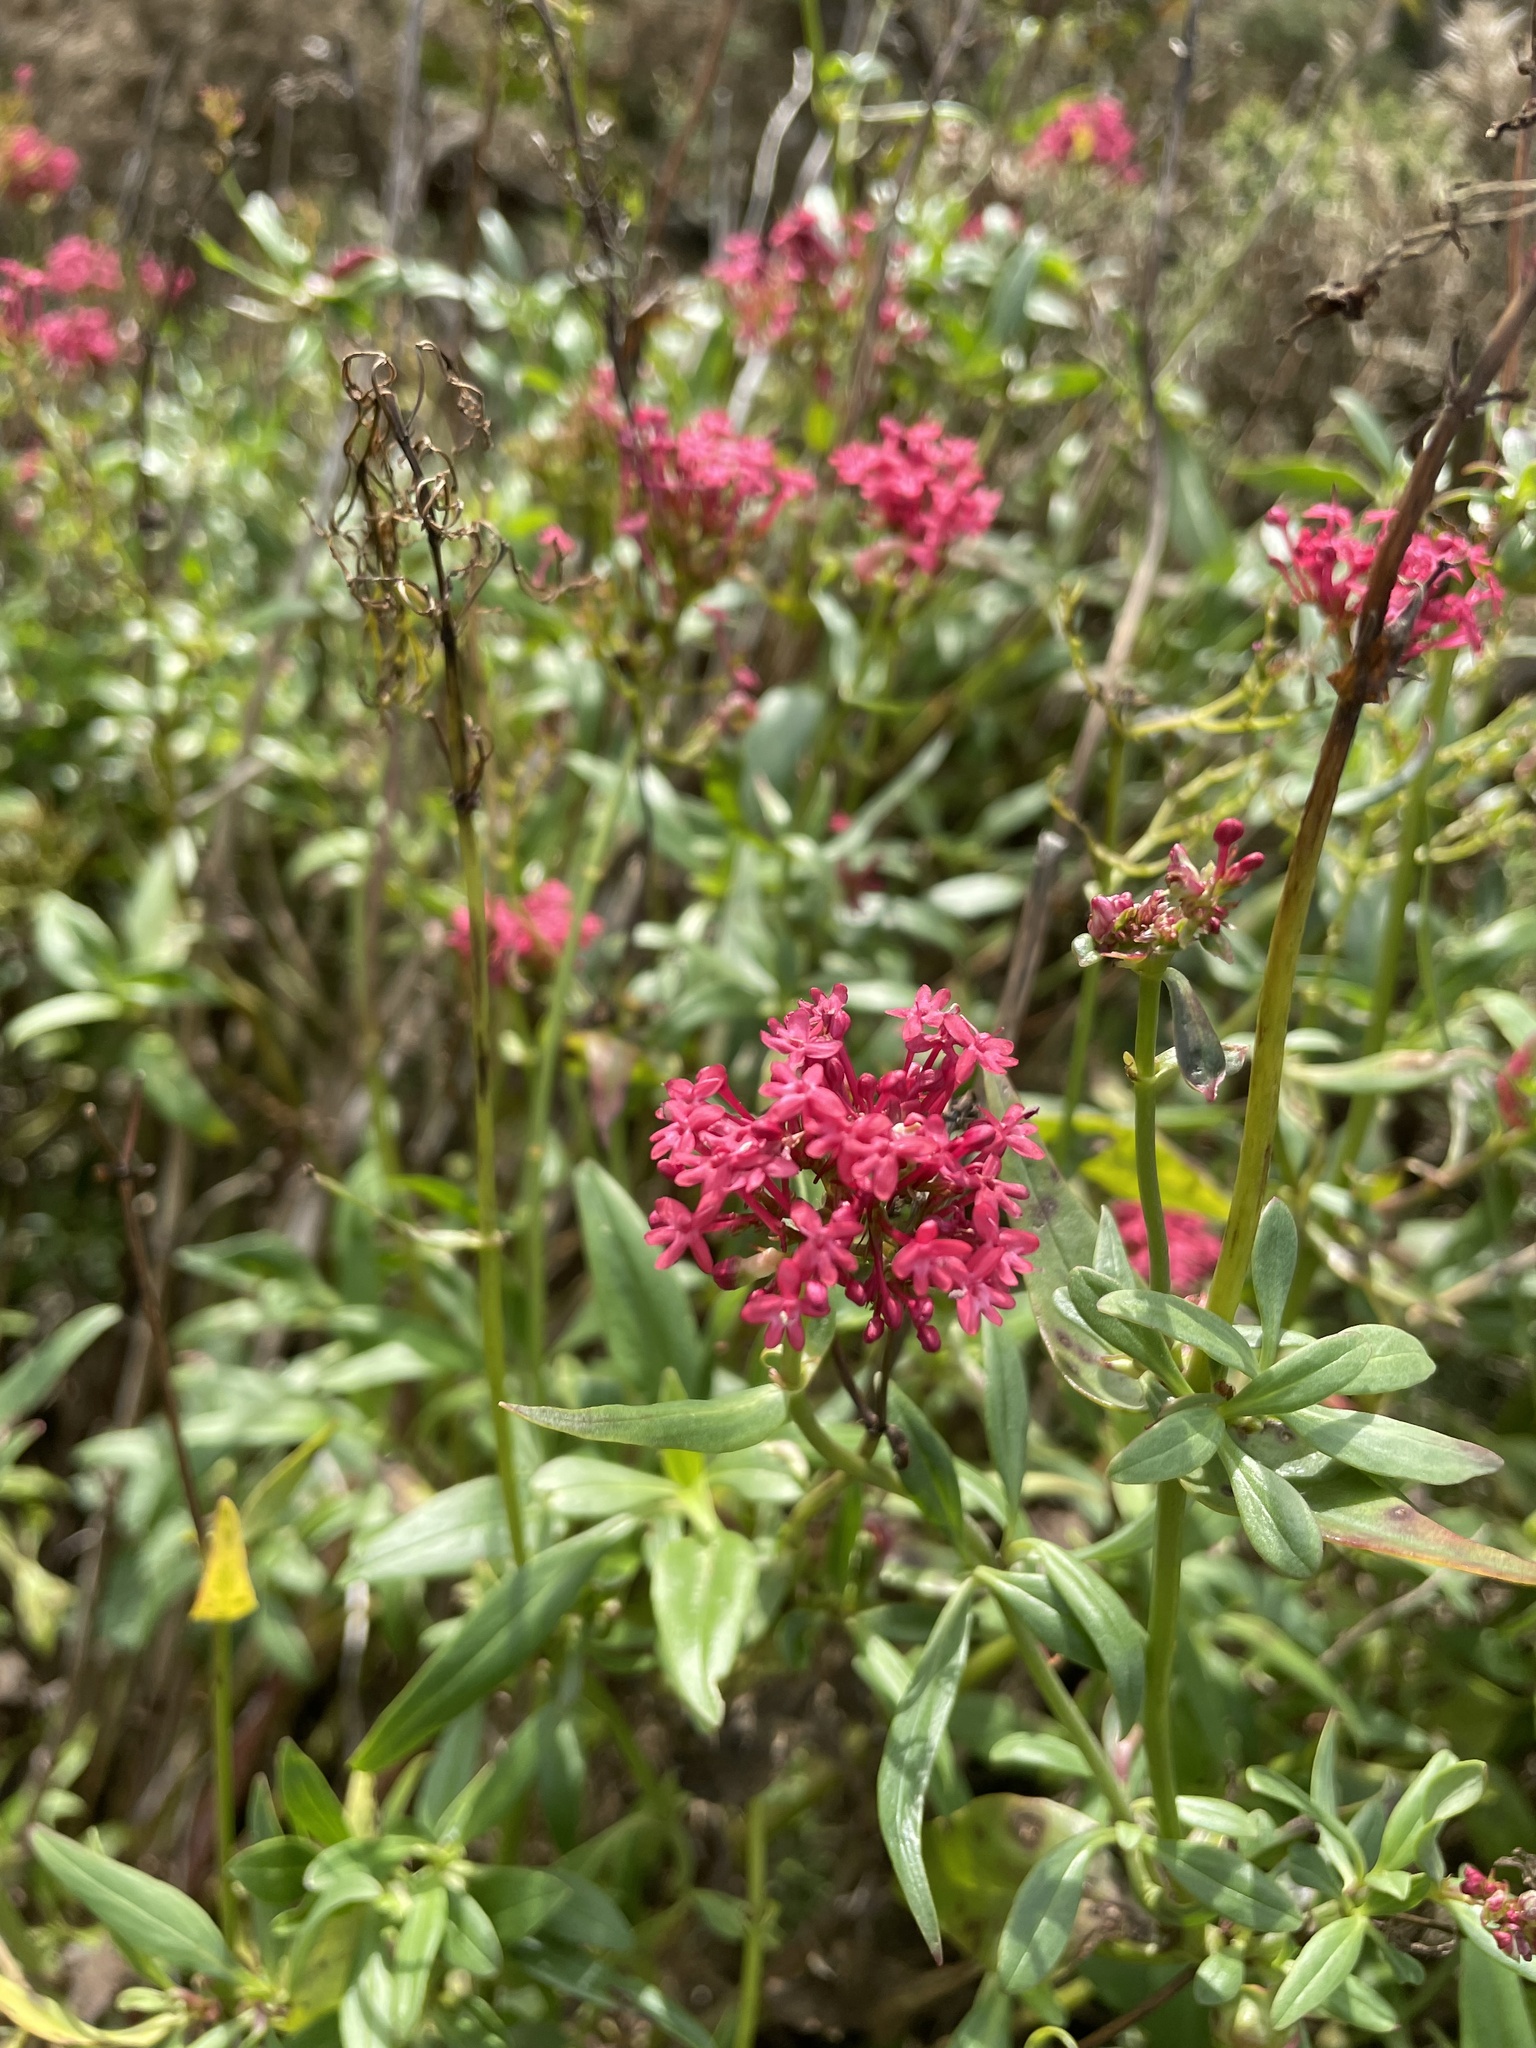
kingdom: Plantae
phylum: Tracheophyta
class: Magnoliopsida
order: Dipsacales
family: Caprifoliaceae
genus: Centranthus
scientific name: Centranthus ruber
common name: Red valerian
